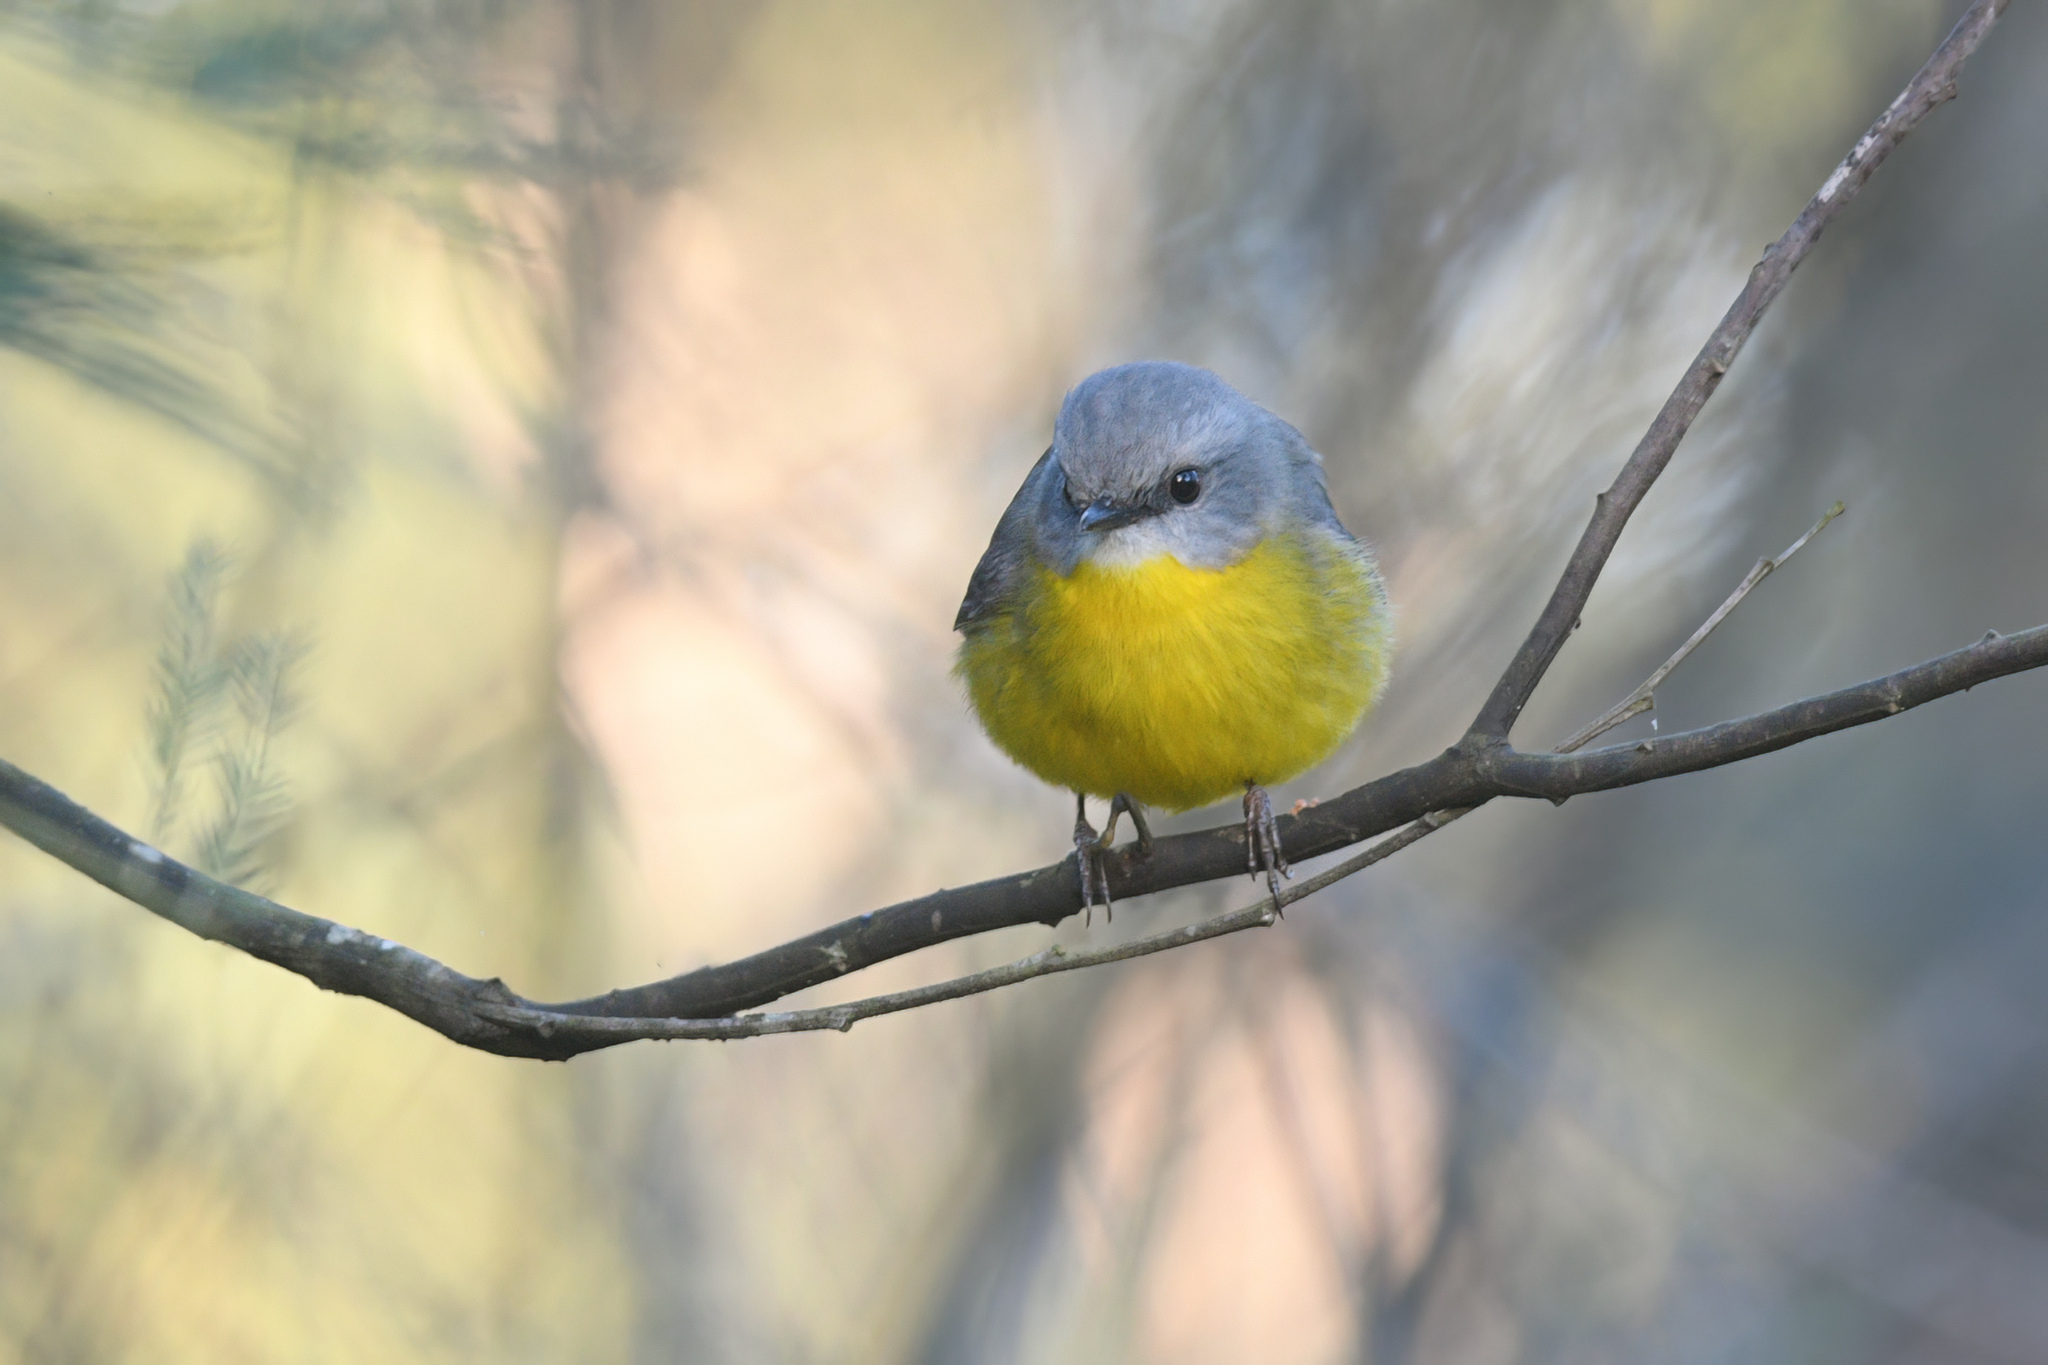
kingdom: Animalia
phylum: Chordata
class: Aves
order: Passeriformes
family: Petroicidae
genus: Eopsaltria
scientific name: Eopsaltria australis
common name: Eastern yellow robin
